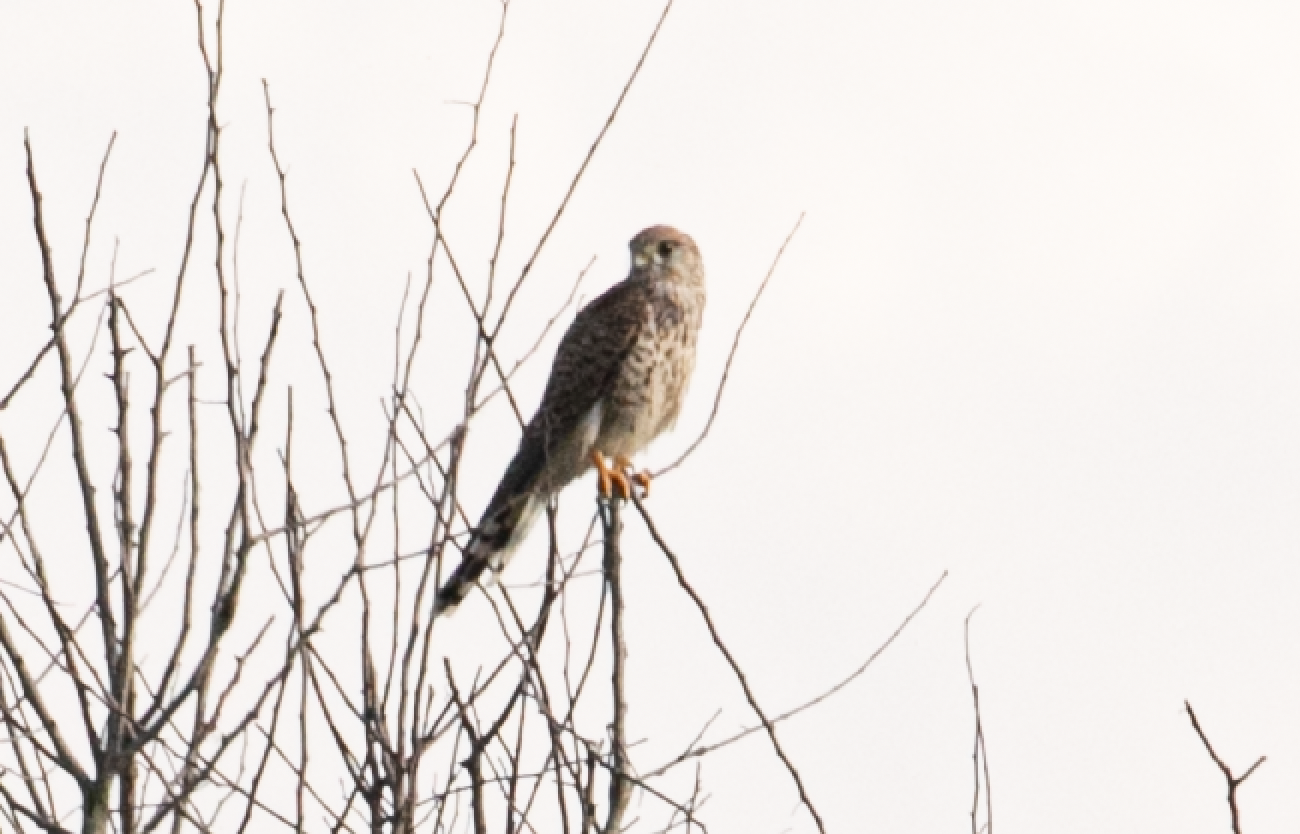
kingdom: Animalia
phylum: Chordata
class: Aves
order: Falconiformes
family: Falconidae
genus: Falco
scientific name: Falco tinnunculus
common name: Common kestrel
